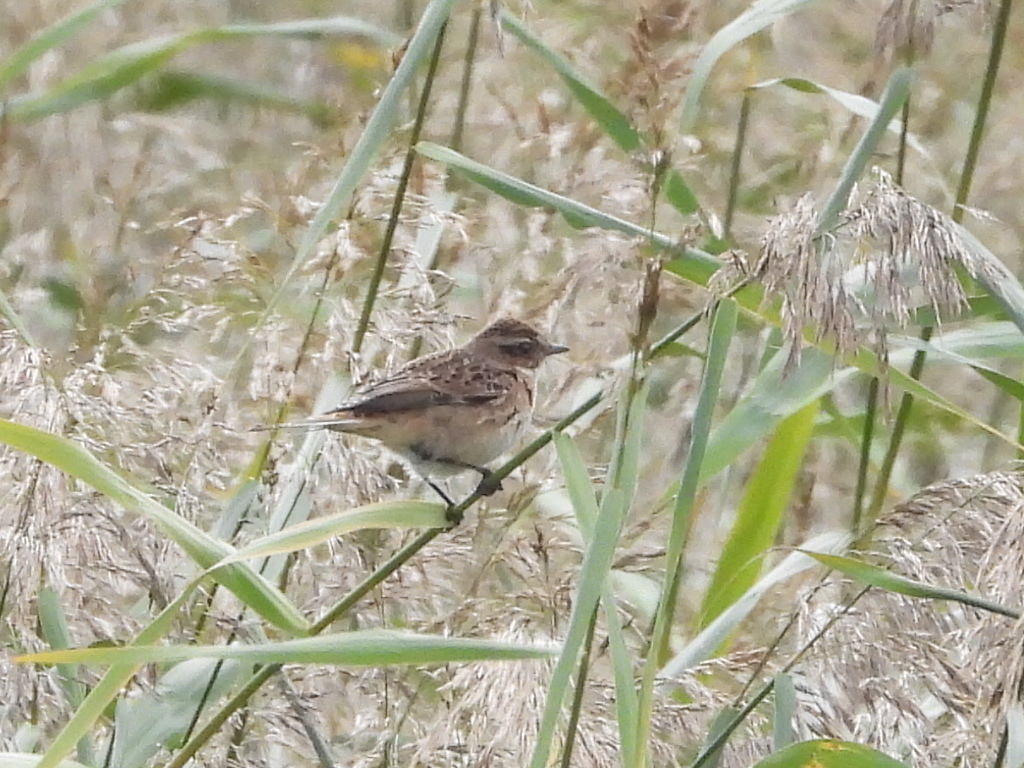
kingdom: Animalia
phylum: Chordata
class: Aves
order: Passeriformes
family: Muscicapidae
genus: Saxicola
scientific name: Saxicola rubetra
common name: Whinchat
